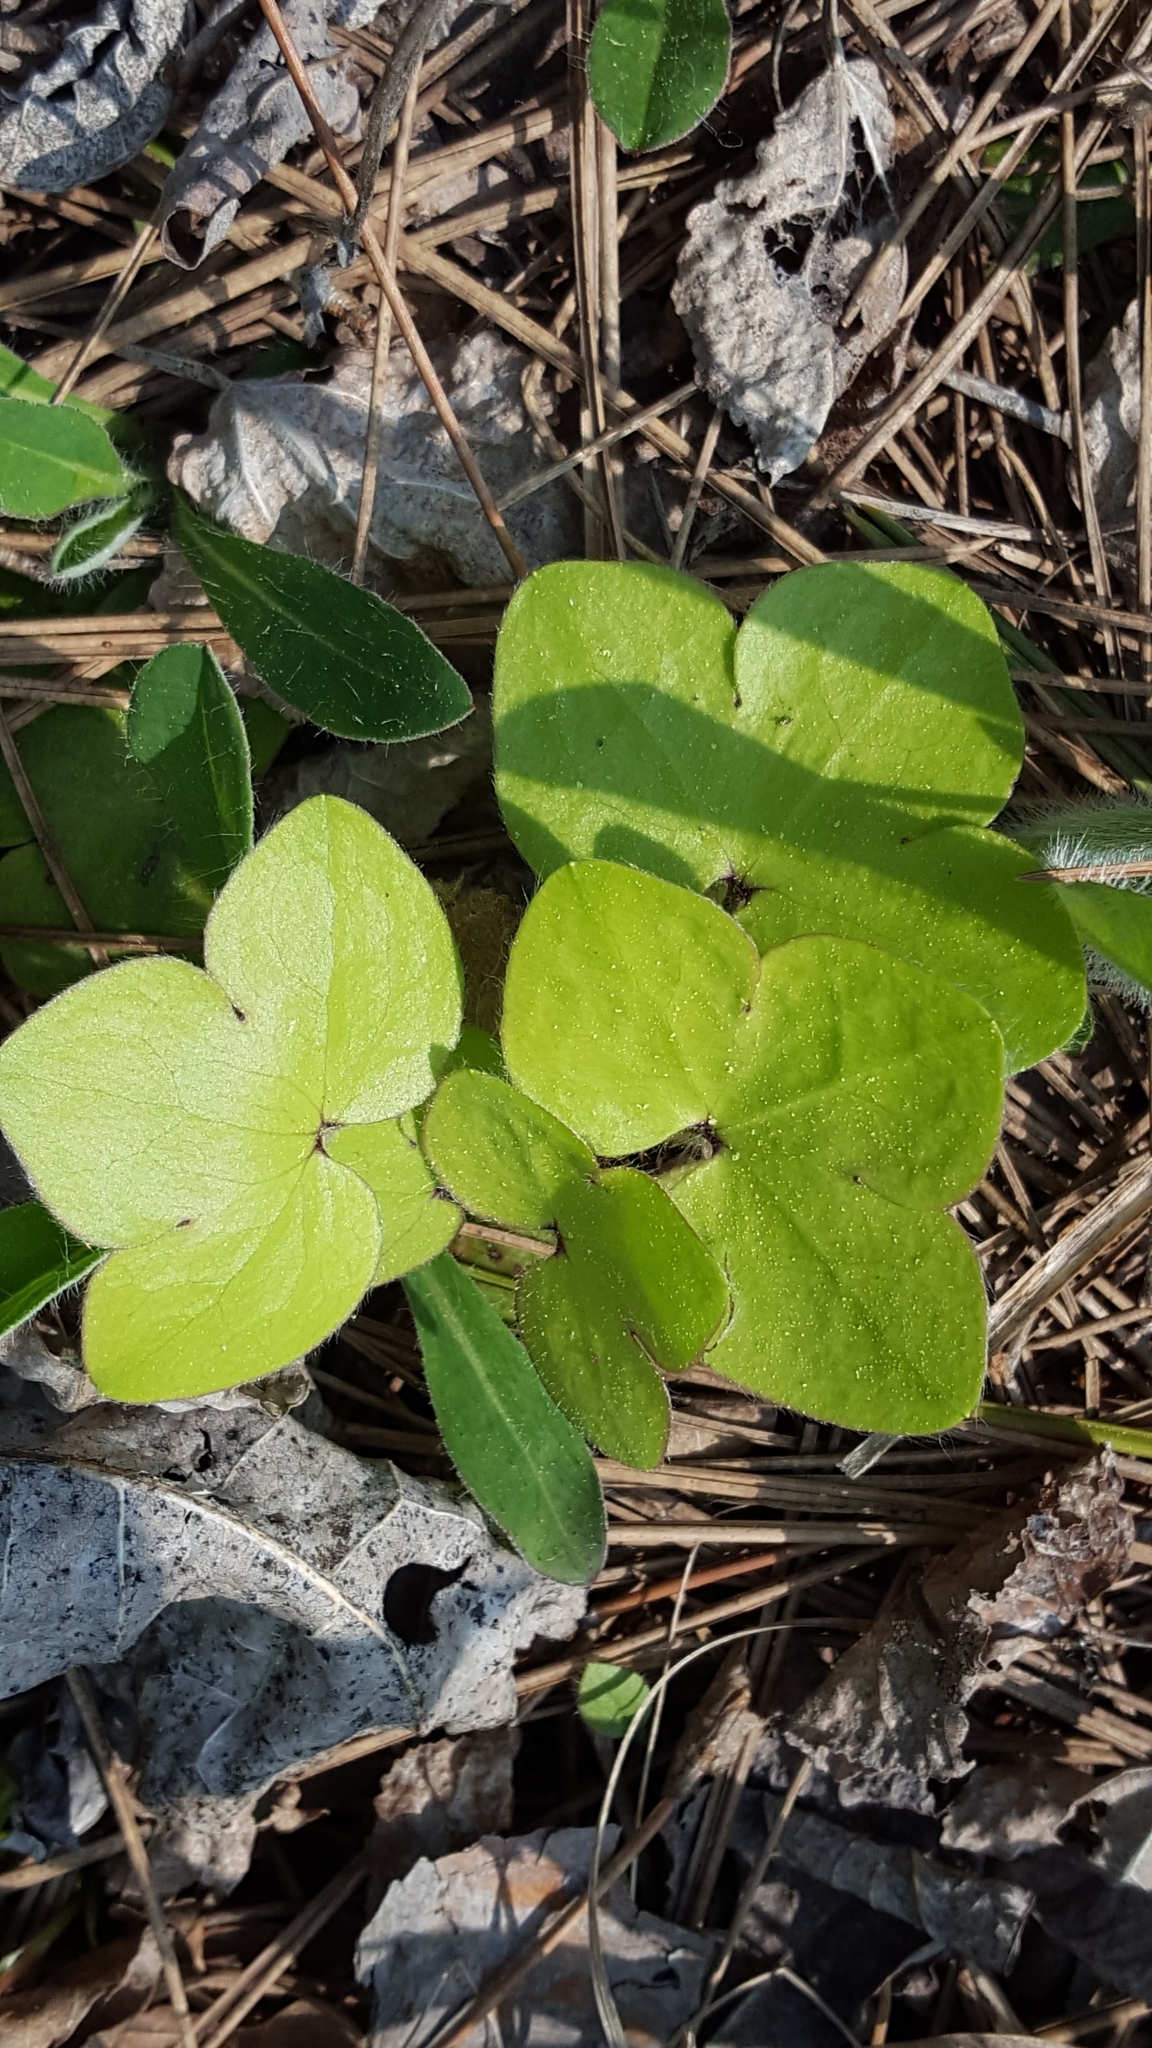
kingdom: Plantae
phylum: Tracheophyta
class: Magnoliopsida
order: Ranunculales
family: Ranunculaceae
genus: Hepatica
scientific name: Hepatica americana
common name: American hepatica
